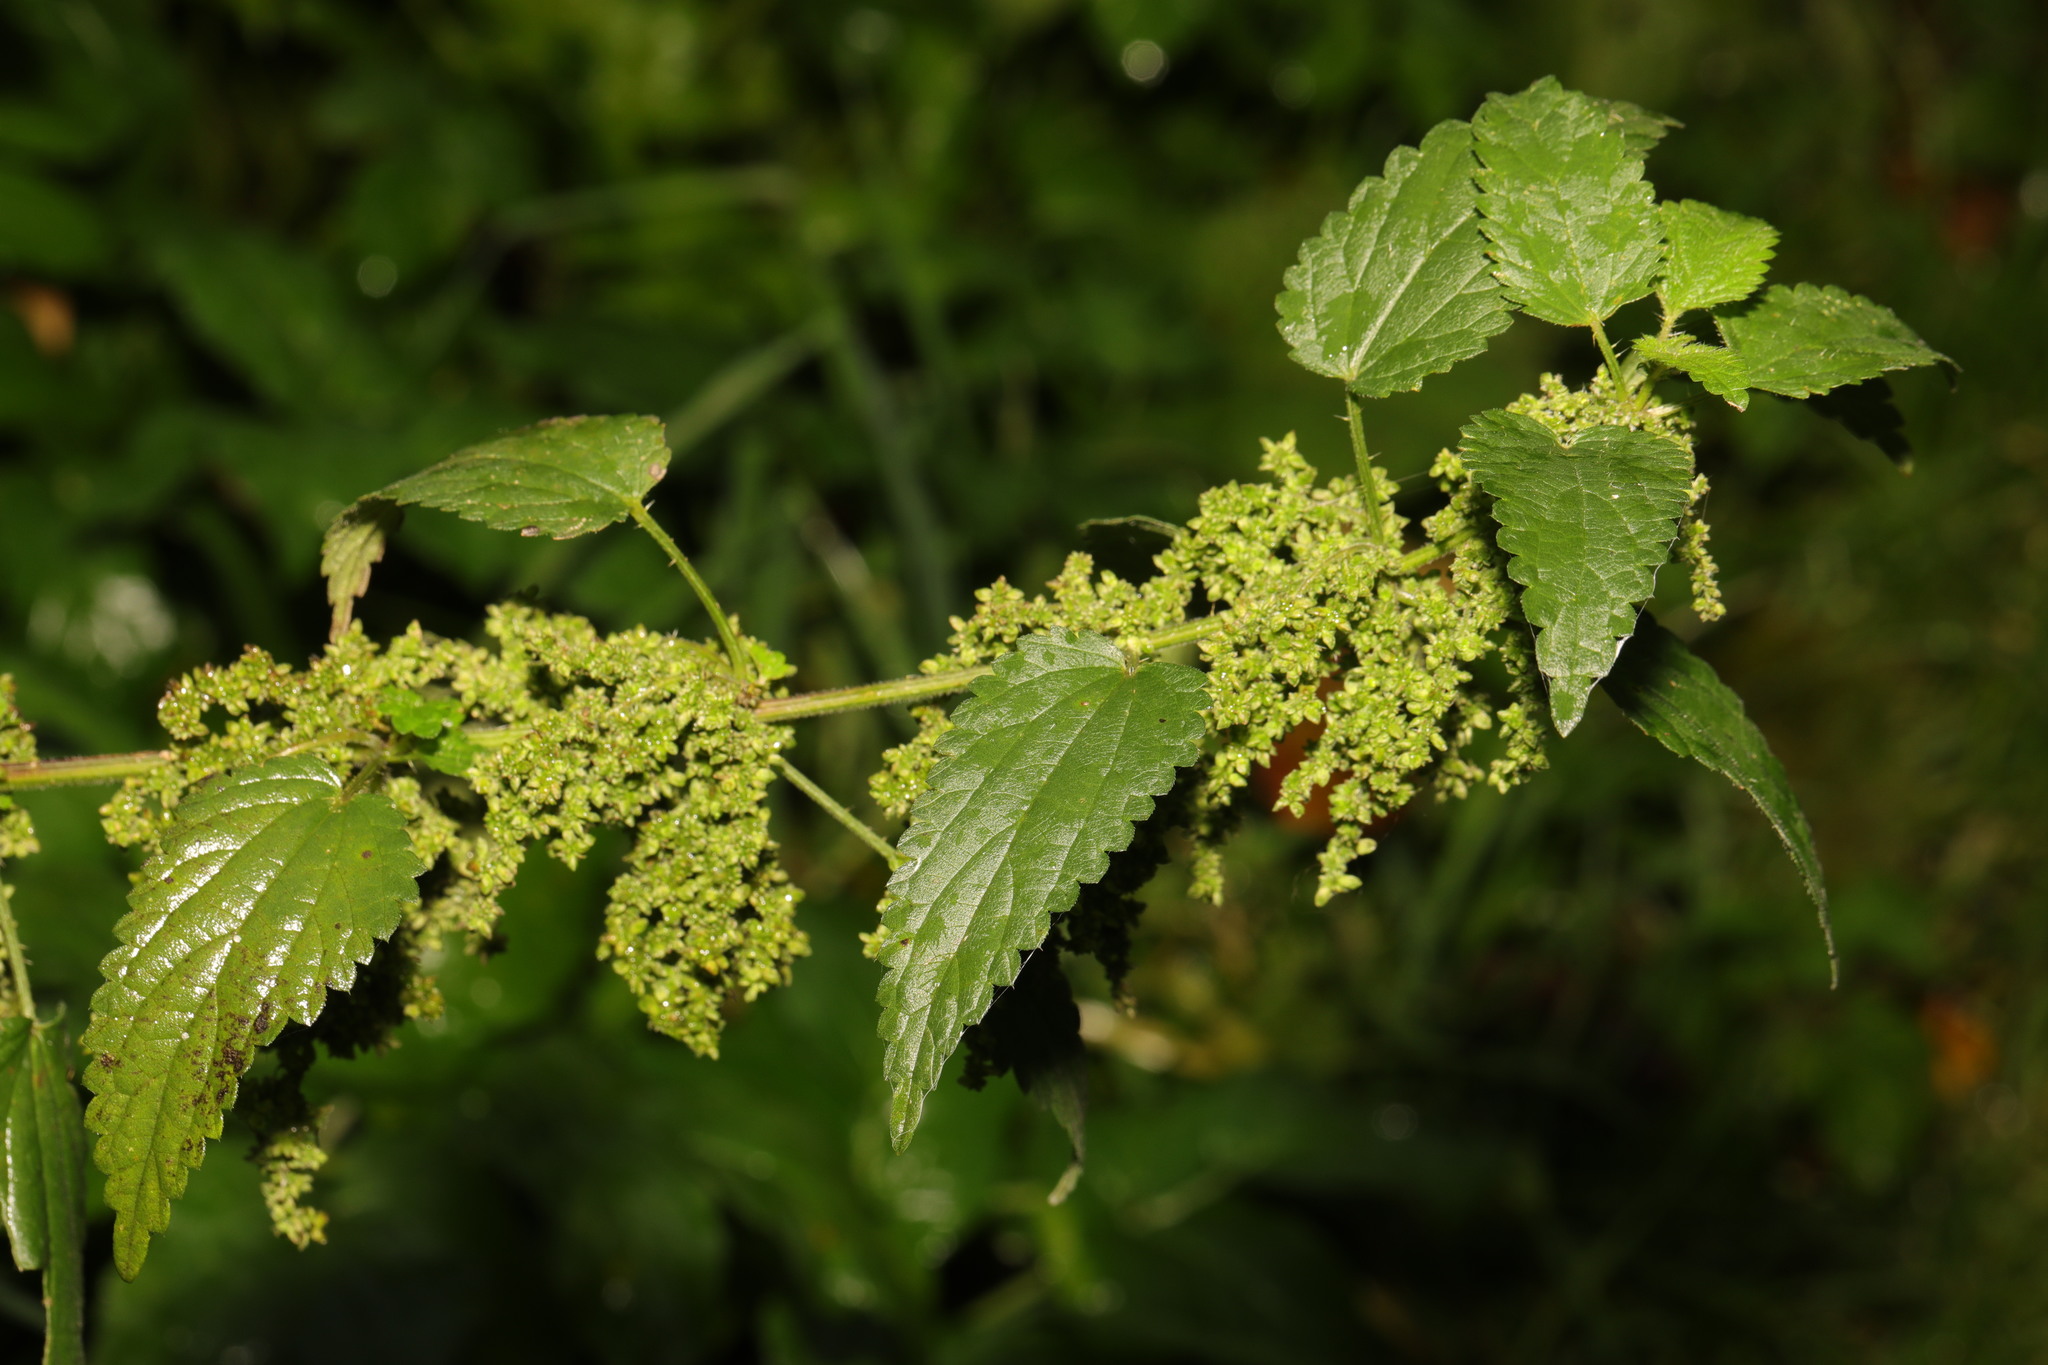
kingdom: Plantae
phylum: Tracheophyta
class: Magnoliopsida
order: Rosales
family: Urticaceae
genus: Urtica
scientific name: Urtica dioica
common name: Common nettle
